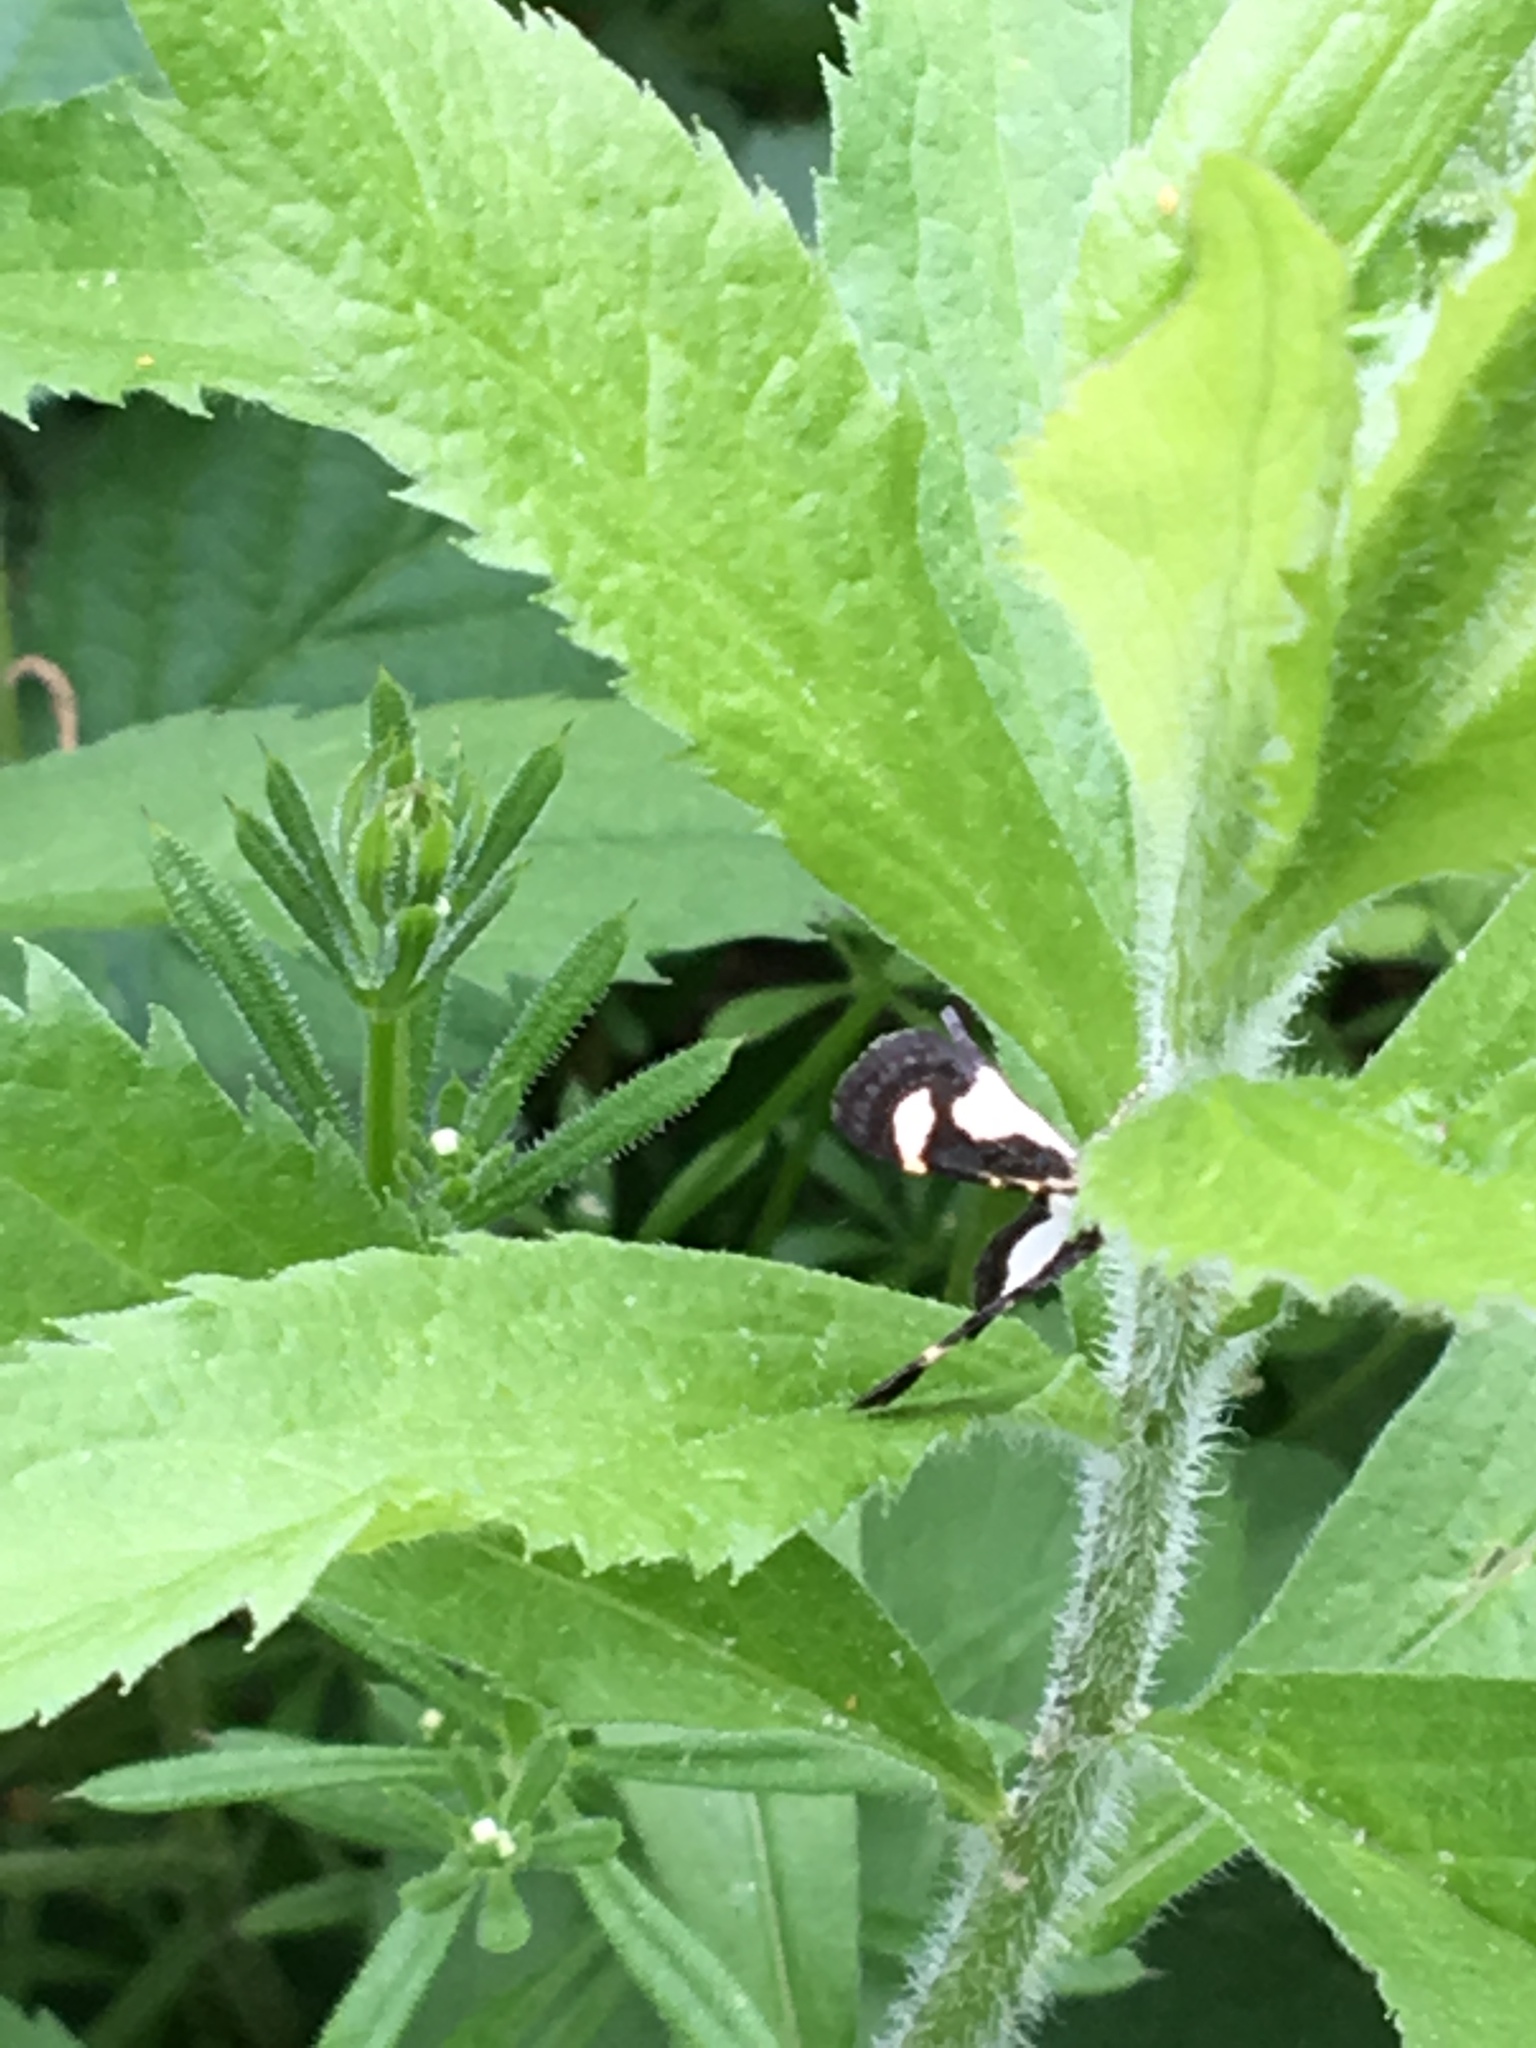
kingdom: Animalia
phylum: Arthropoda
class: Insecta
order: Lepidoptera
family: Geometridae
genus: Heliomata
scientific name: Heliomata cycladata
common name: Common spring moth
